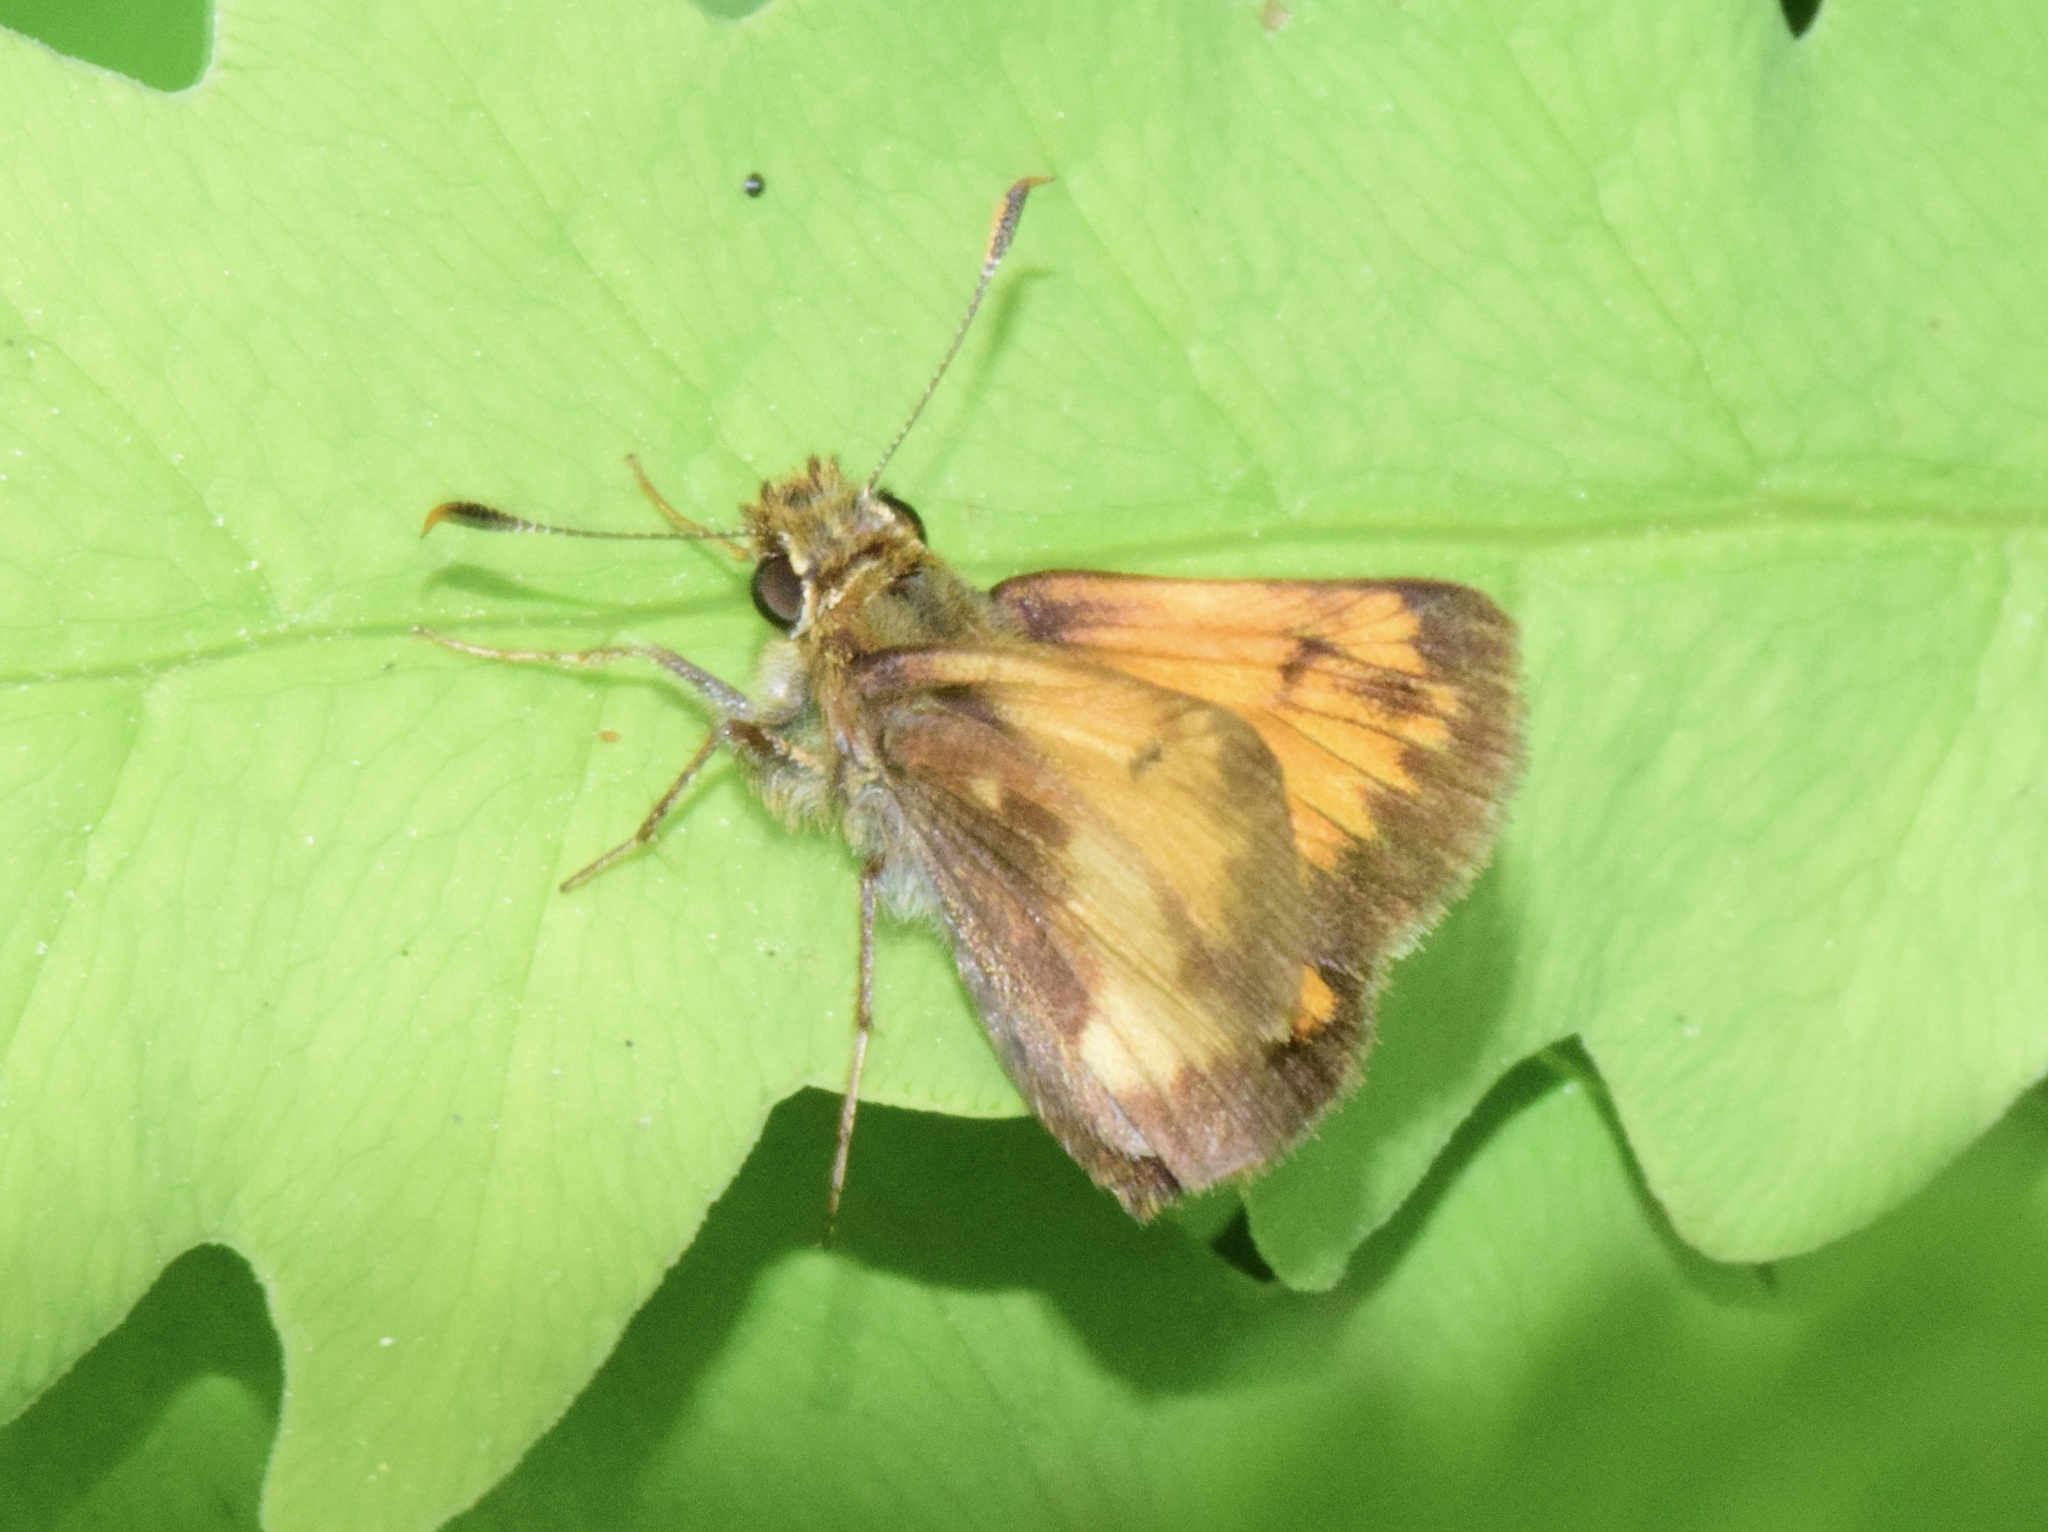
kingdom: Animalia
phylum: Arthropoda
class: Insecta
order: Lepidoptera
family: Hesperiidae
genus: Lon
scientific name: Lon hobomok
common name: Hobomok skipper
